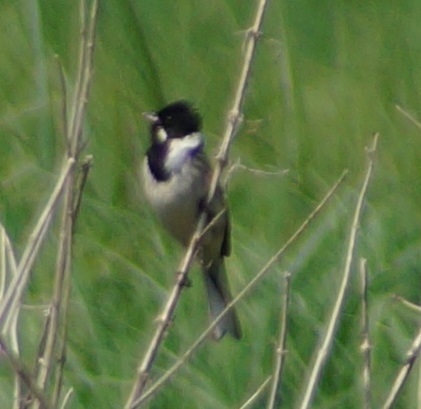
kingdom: Animalia
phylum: Chordata
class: Aves
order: Passeriformes
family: Emberizidae
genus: Emberiza
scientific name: Emberiza schoeniclus
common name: Reed bunting
